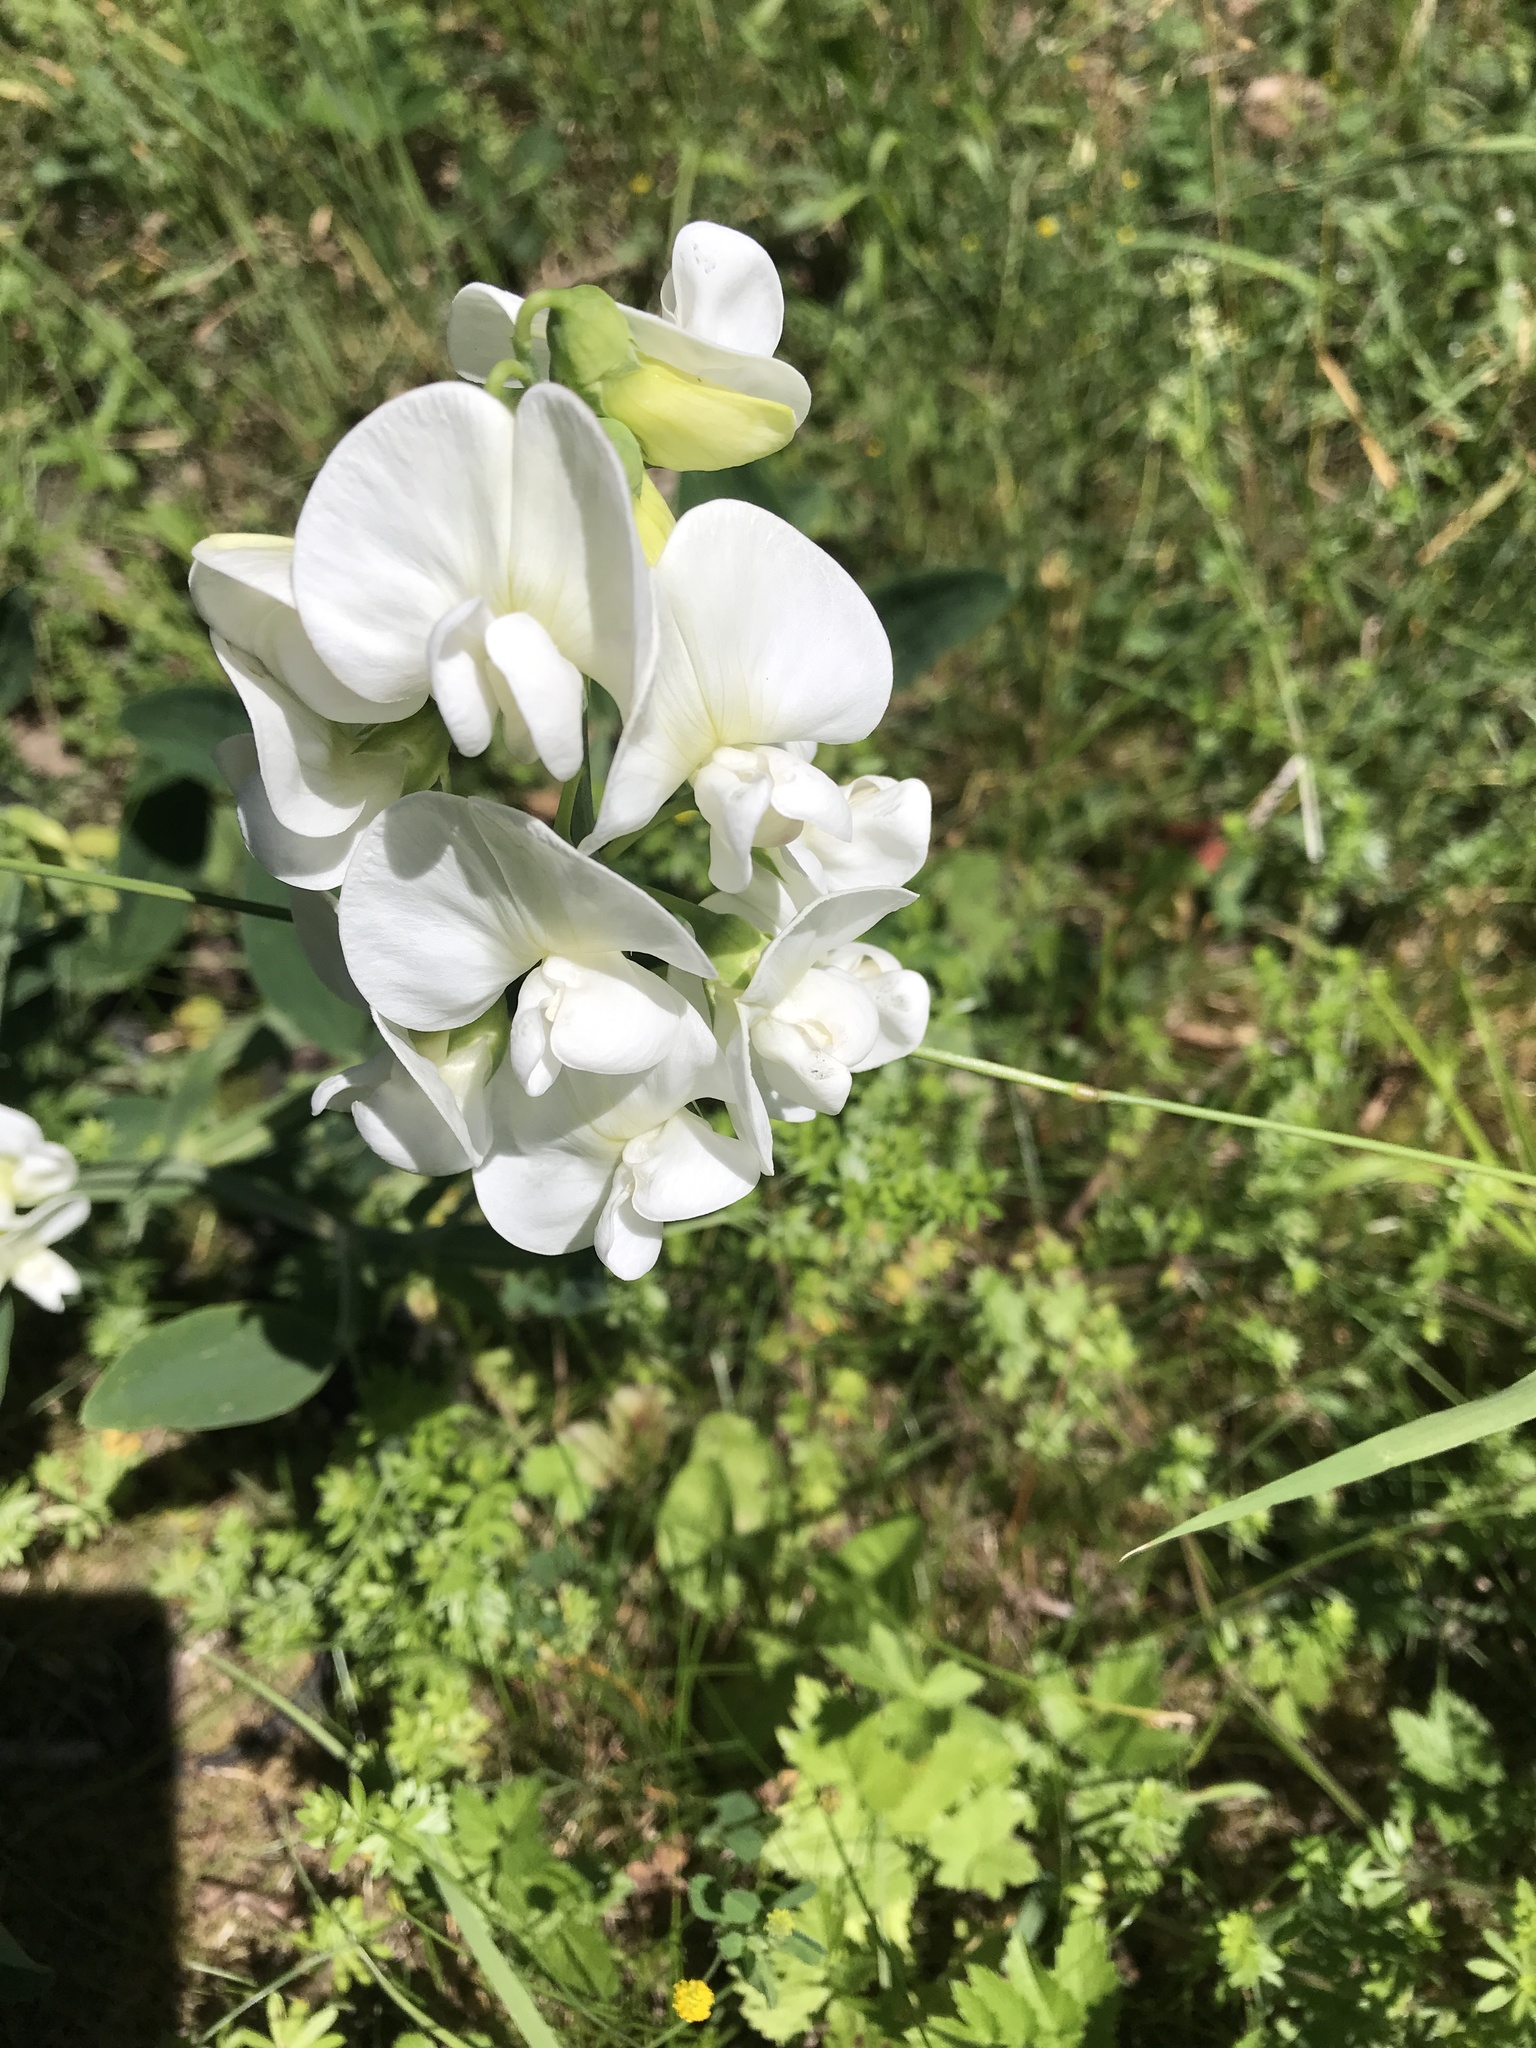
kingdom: Plantae
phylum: Tracheophyta
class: Magnoliopsida
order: Fabales
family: Fabaceae
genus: Lathyrus
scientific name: Lathyrus latifolius
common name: Perennial pea
